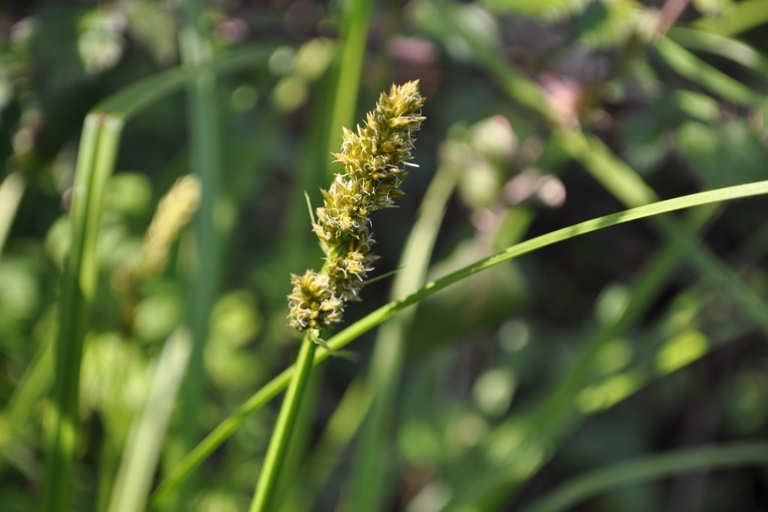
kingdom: Plantae
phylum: Tracheophyta
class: Liliopsida
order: Poales
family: Cyperaceae
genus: Carex
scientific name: Carex otrubae
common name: False fox-sedge
